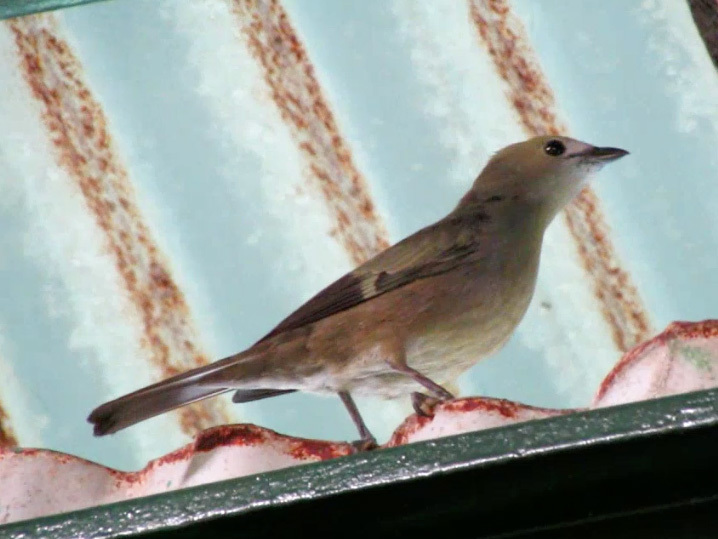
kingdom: Animalia
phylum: Chordata
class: Aves
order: Passeriformes
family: Thraupidae
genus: Thraupis
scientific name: Thraupis palmarum
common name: Palm tanager
